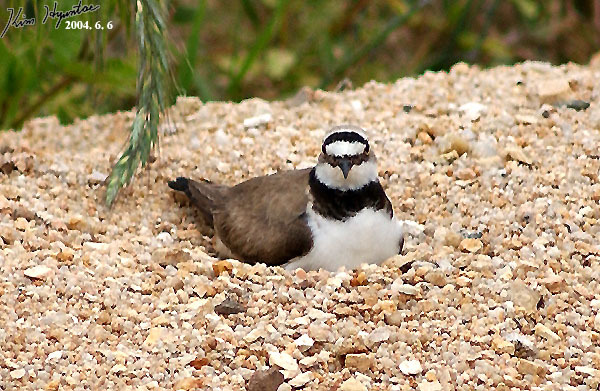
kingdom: Animalia
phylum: Chordata
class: Aves
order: Charadriiformes
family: Charadriidae
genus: Charadrius
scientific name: Charadrius dubius
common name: Little ringed plover
